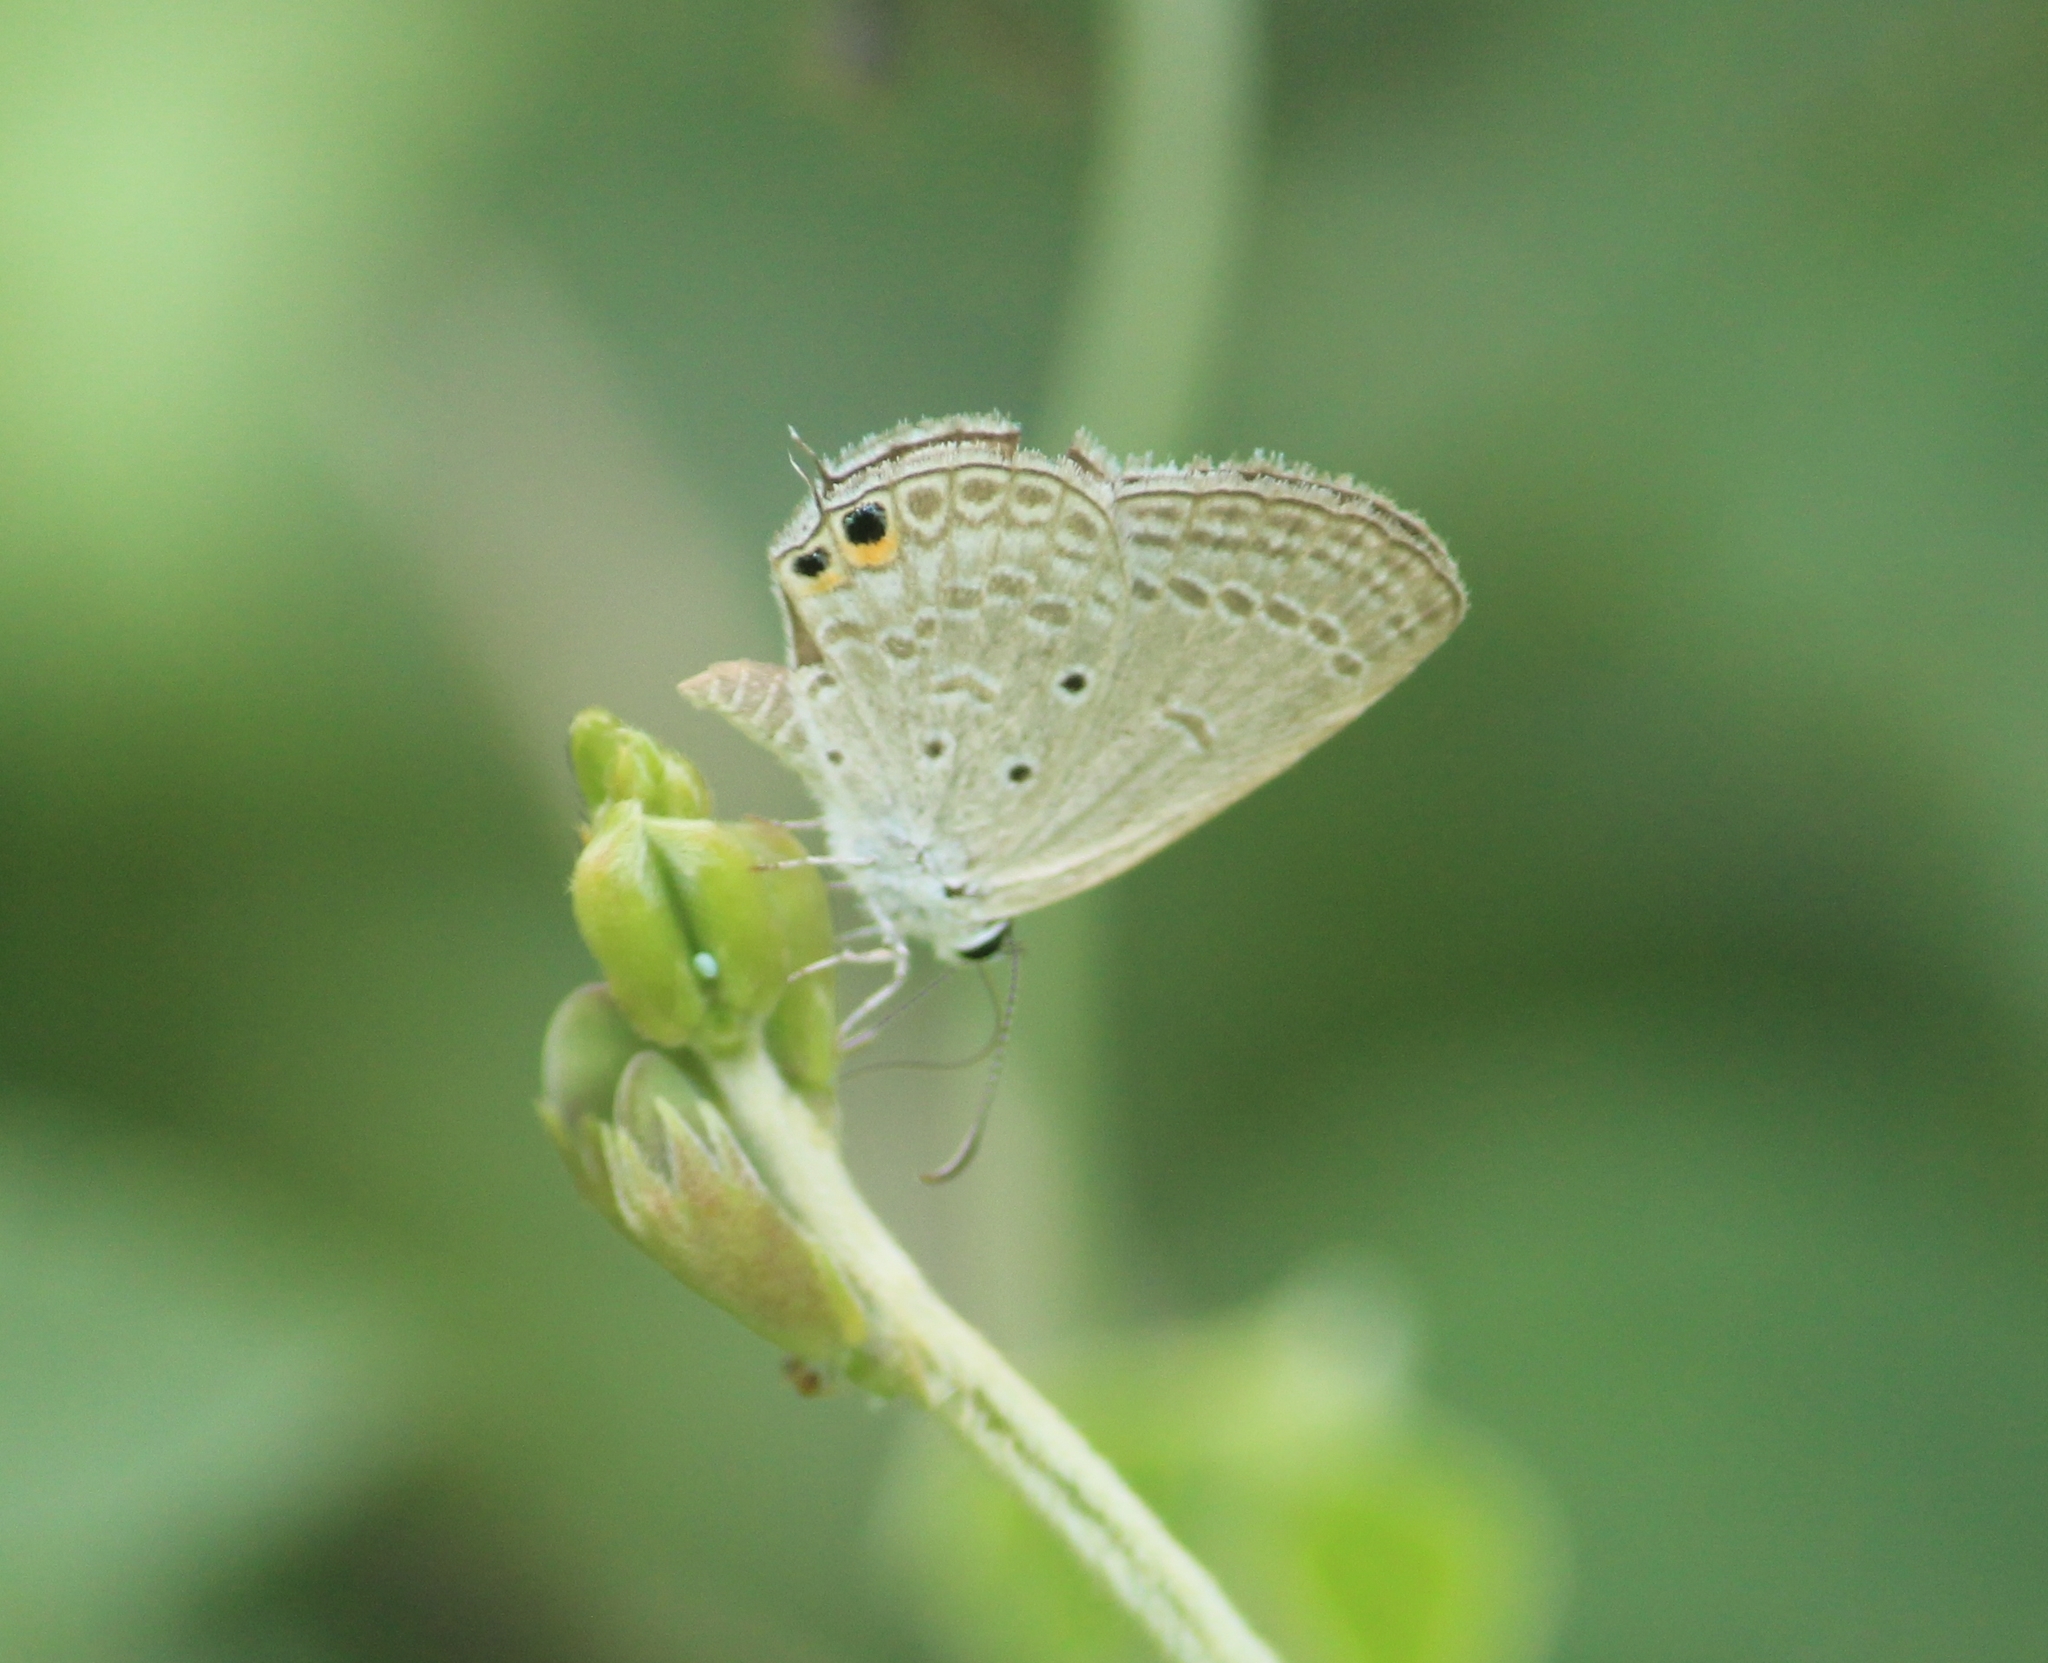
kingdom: Animalia
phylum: Arthropoda
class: Insecta
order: Lepidoptera
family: Lycaenidae
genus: Euchrysops
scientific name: Euchrysops cnejus
